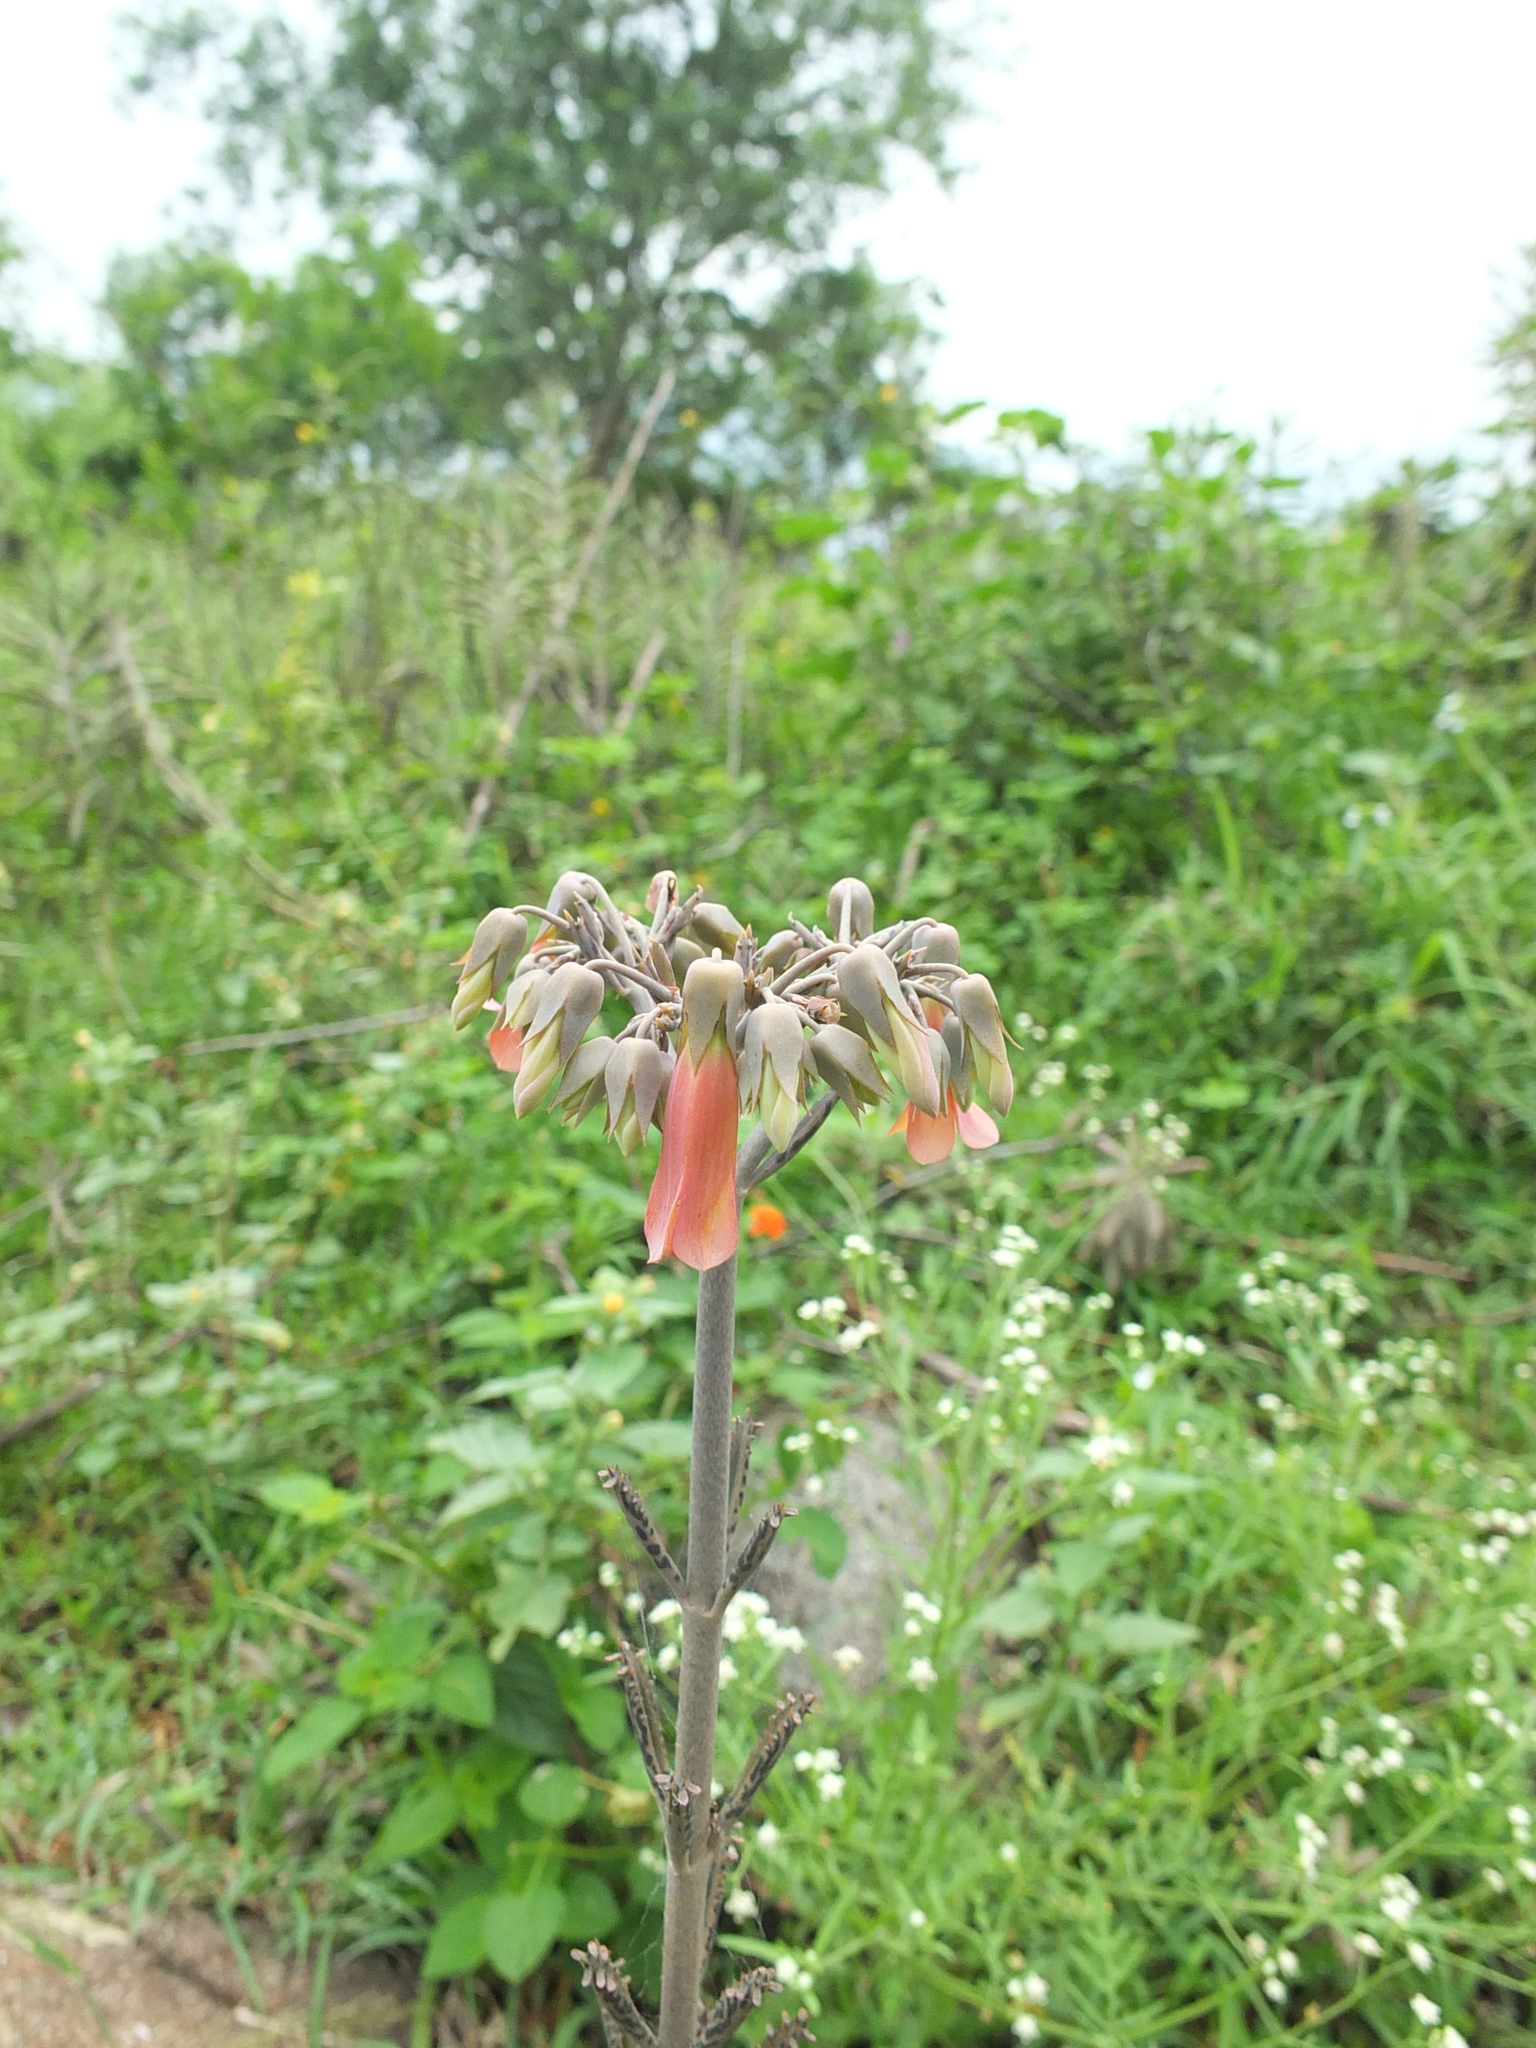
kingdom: Plantae
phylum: Tracheophyta
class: Magnoliopsida
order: Saxifragales
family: Crassulaceae
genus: Kalanchoe
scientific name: Kalanchoe delagoensis
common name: Chandelier plant
